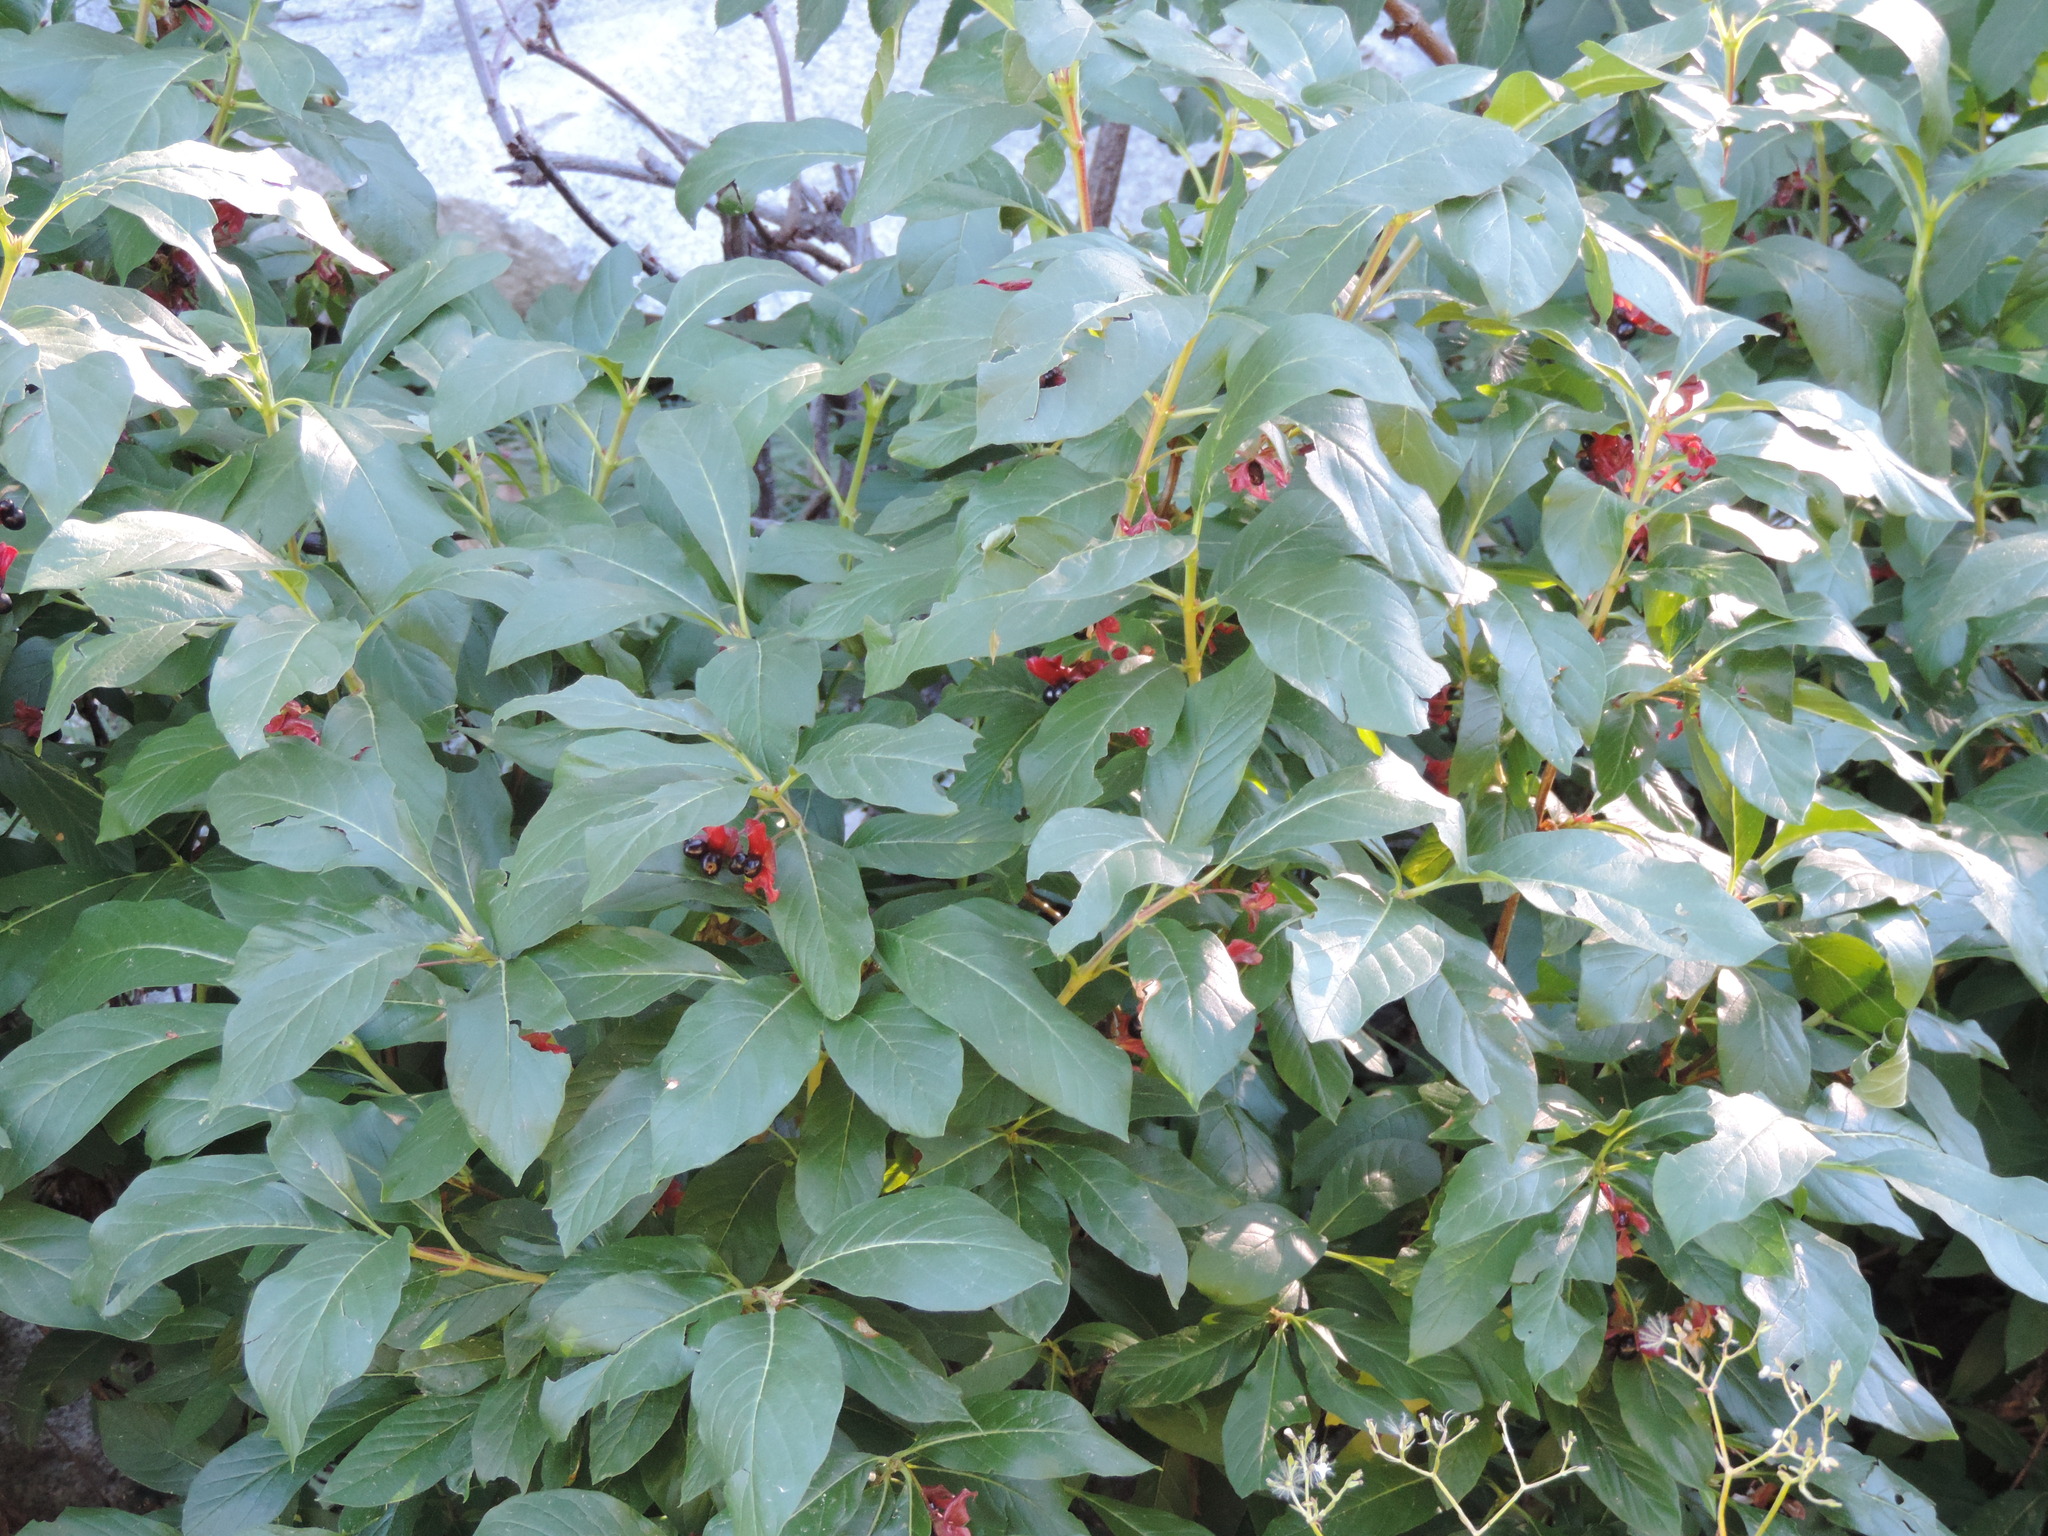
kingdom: Plantae
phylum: Tracheophyta
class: Magnoliopsida
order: Dipsacales
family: Caprifoliaceae
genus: Lonicera
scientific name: Lonicera involucrata
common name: Californian honeysuckle
